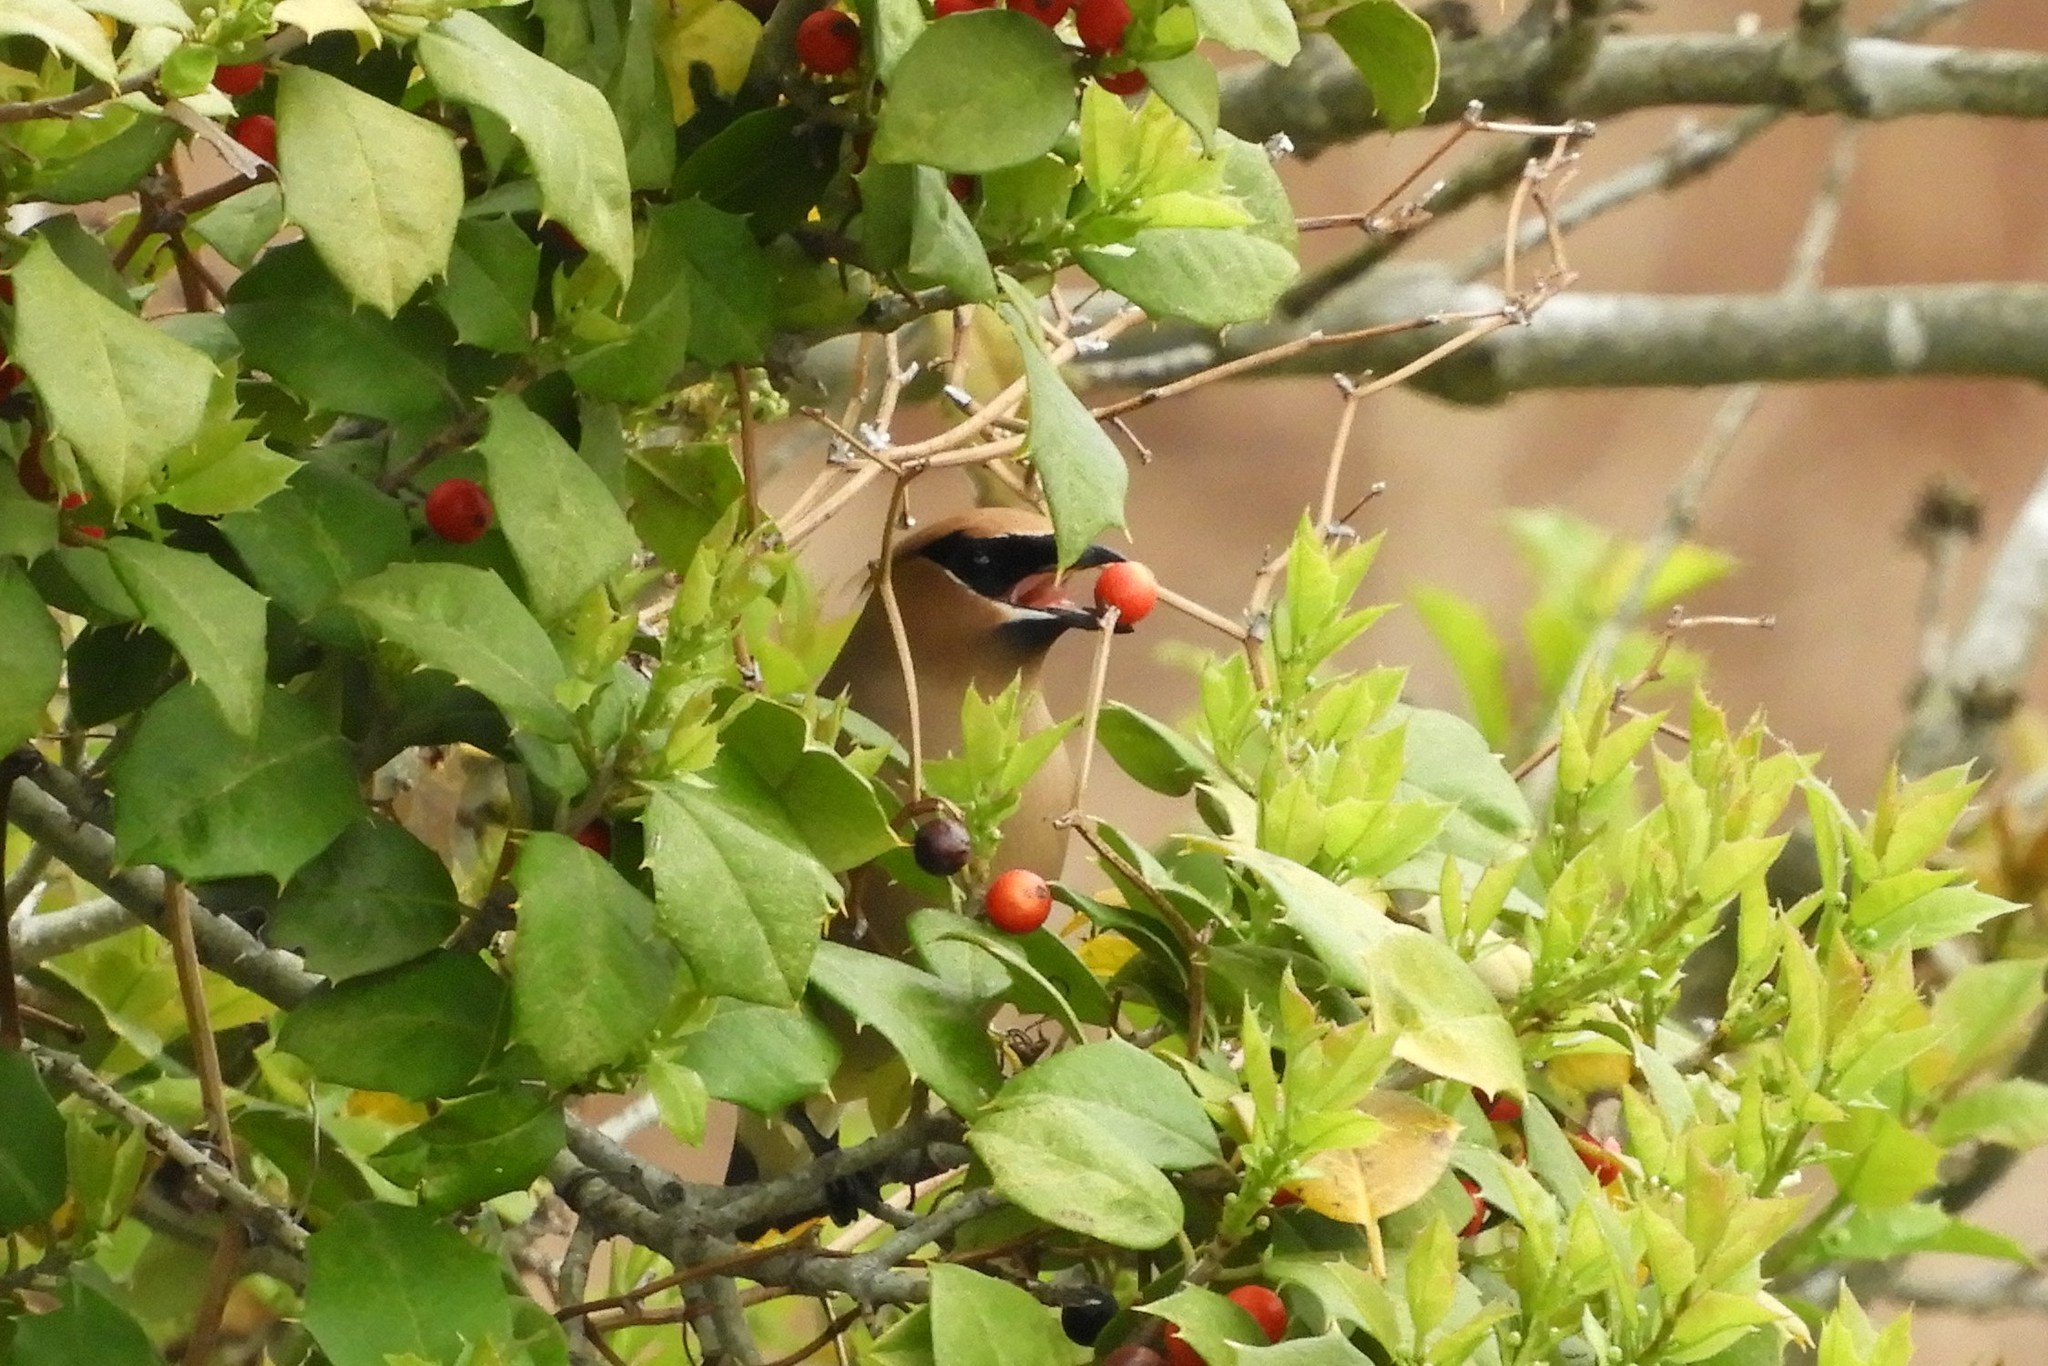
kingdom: Animalia
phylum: Chordata
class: Aves
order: Passeriformes
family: Bombycillidae
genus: Bombycilla
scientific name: Bombycilla cedrorum
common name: Cedar waxwing
